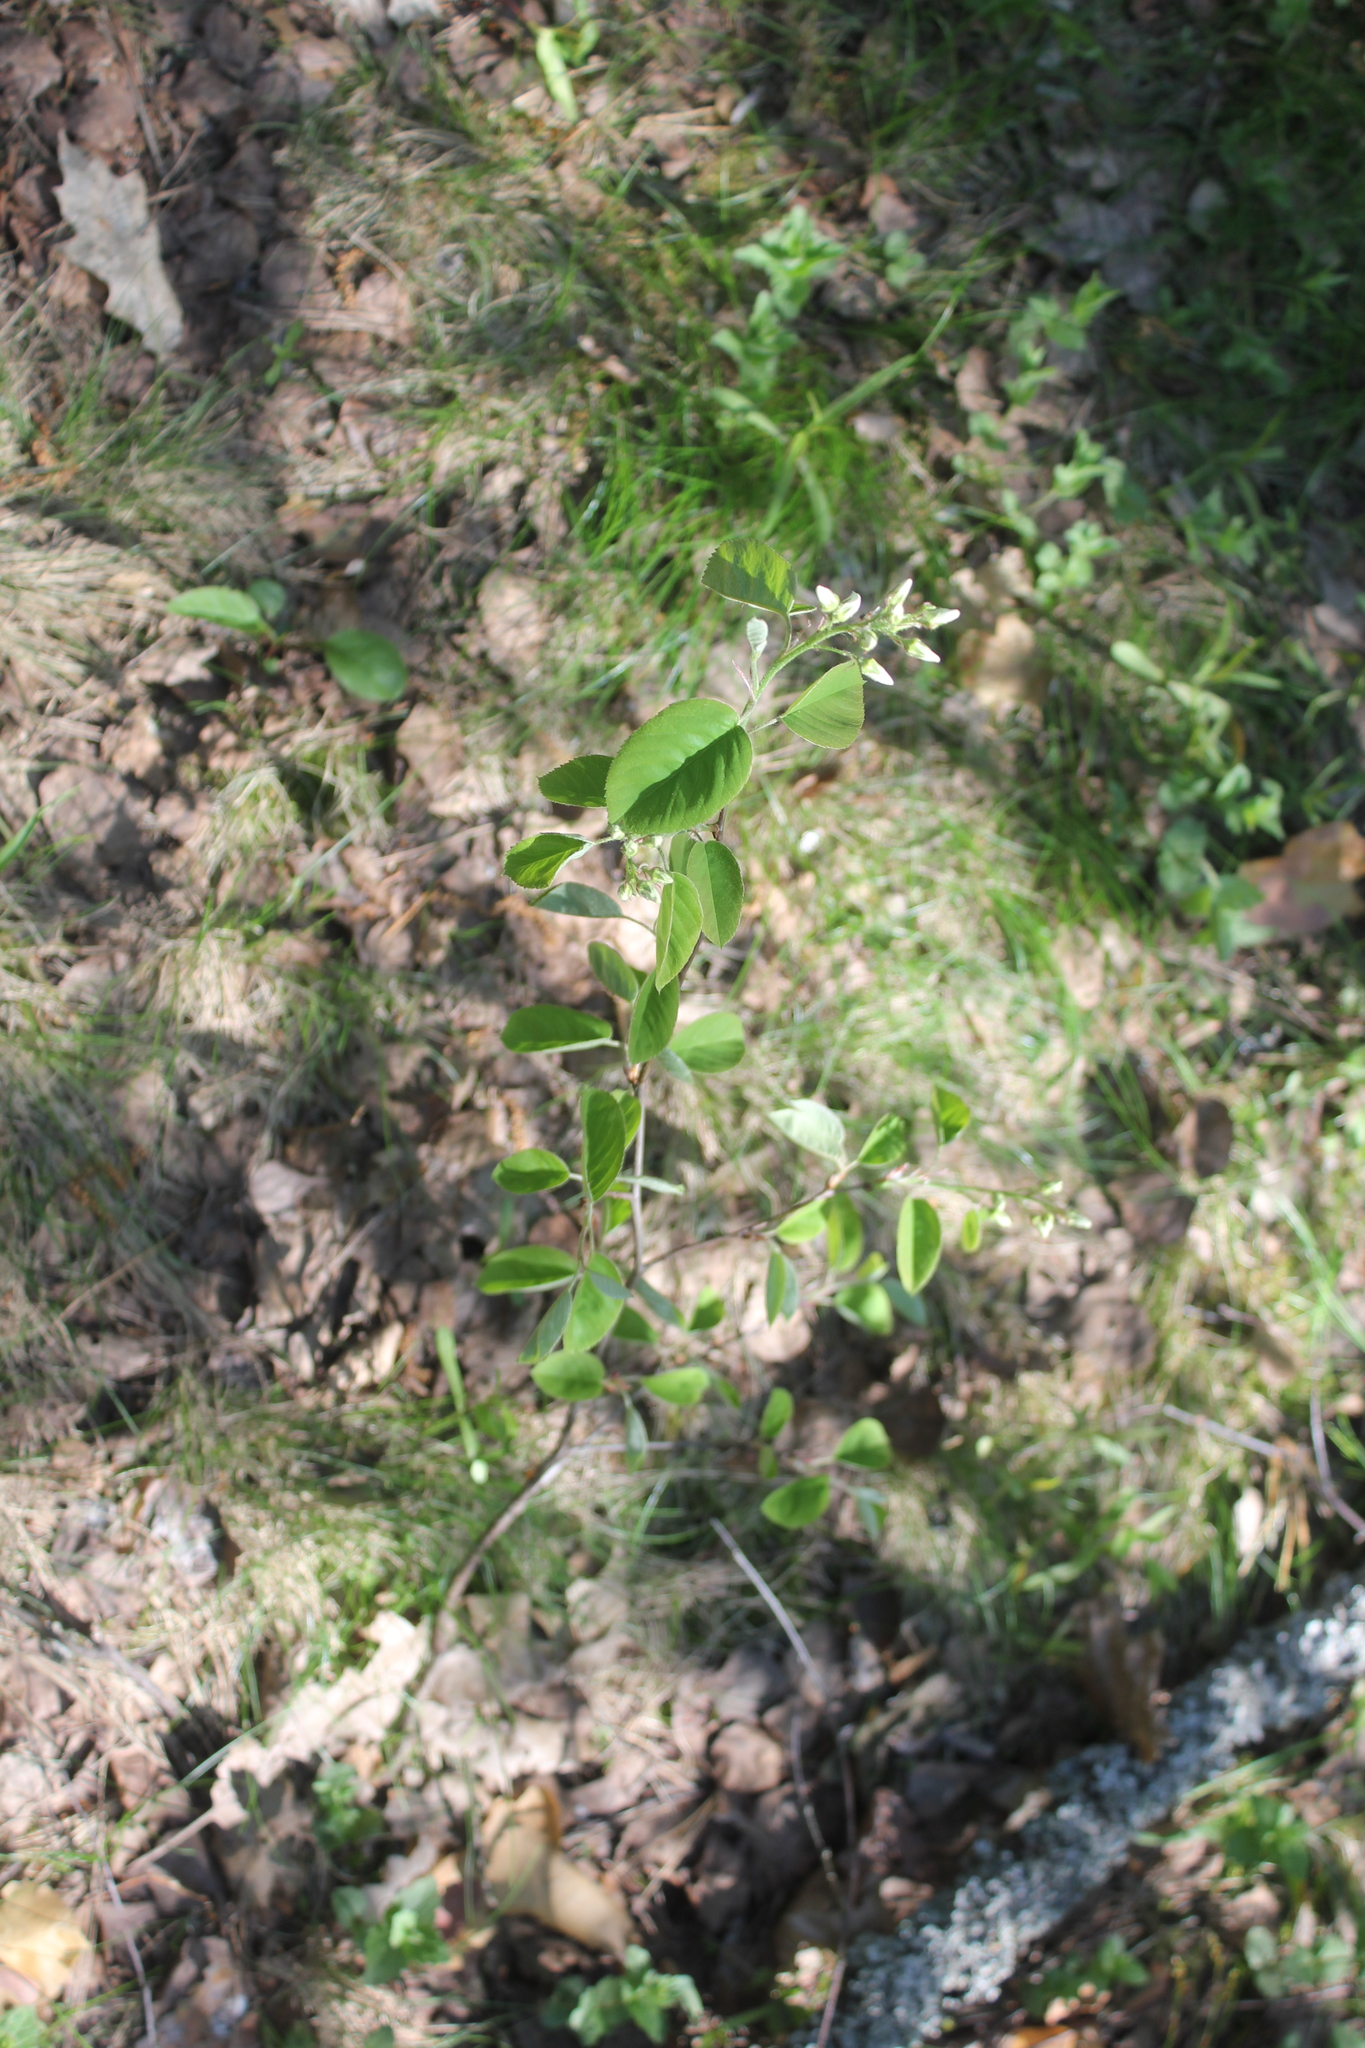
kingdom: Plantae
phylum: Tracheophyta
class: Magnoliopsida
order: Rosales
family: Rosaceae
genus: Amelanchier
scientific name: Amelanchier
